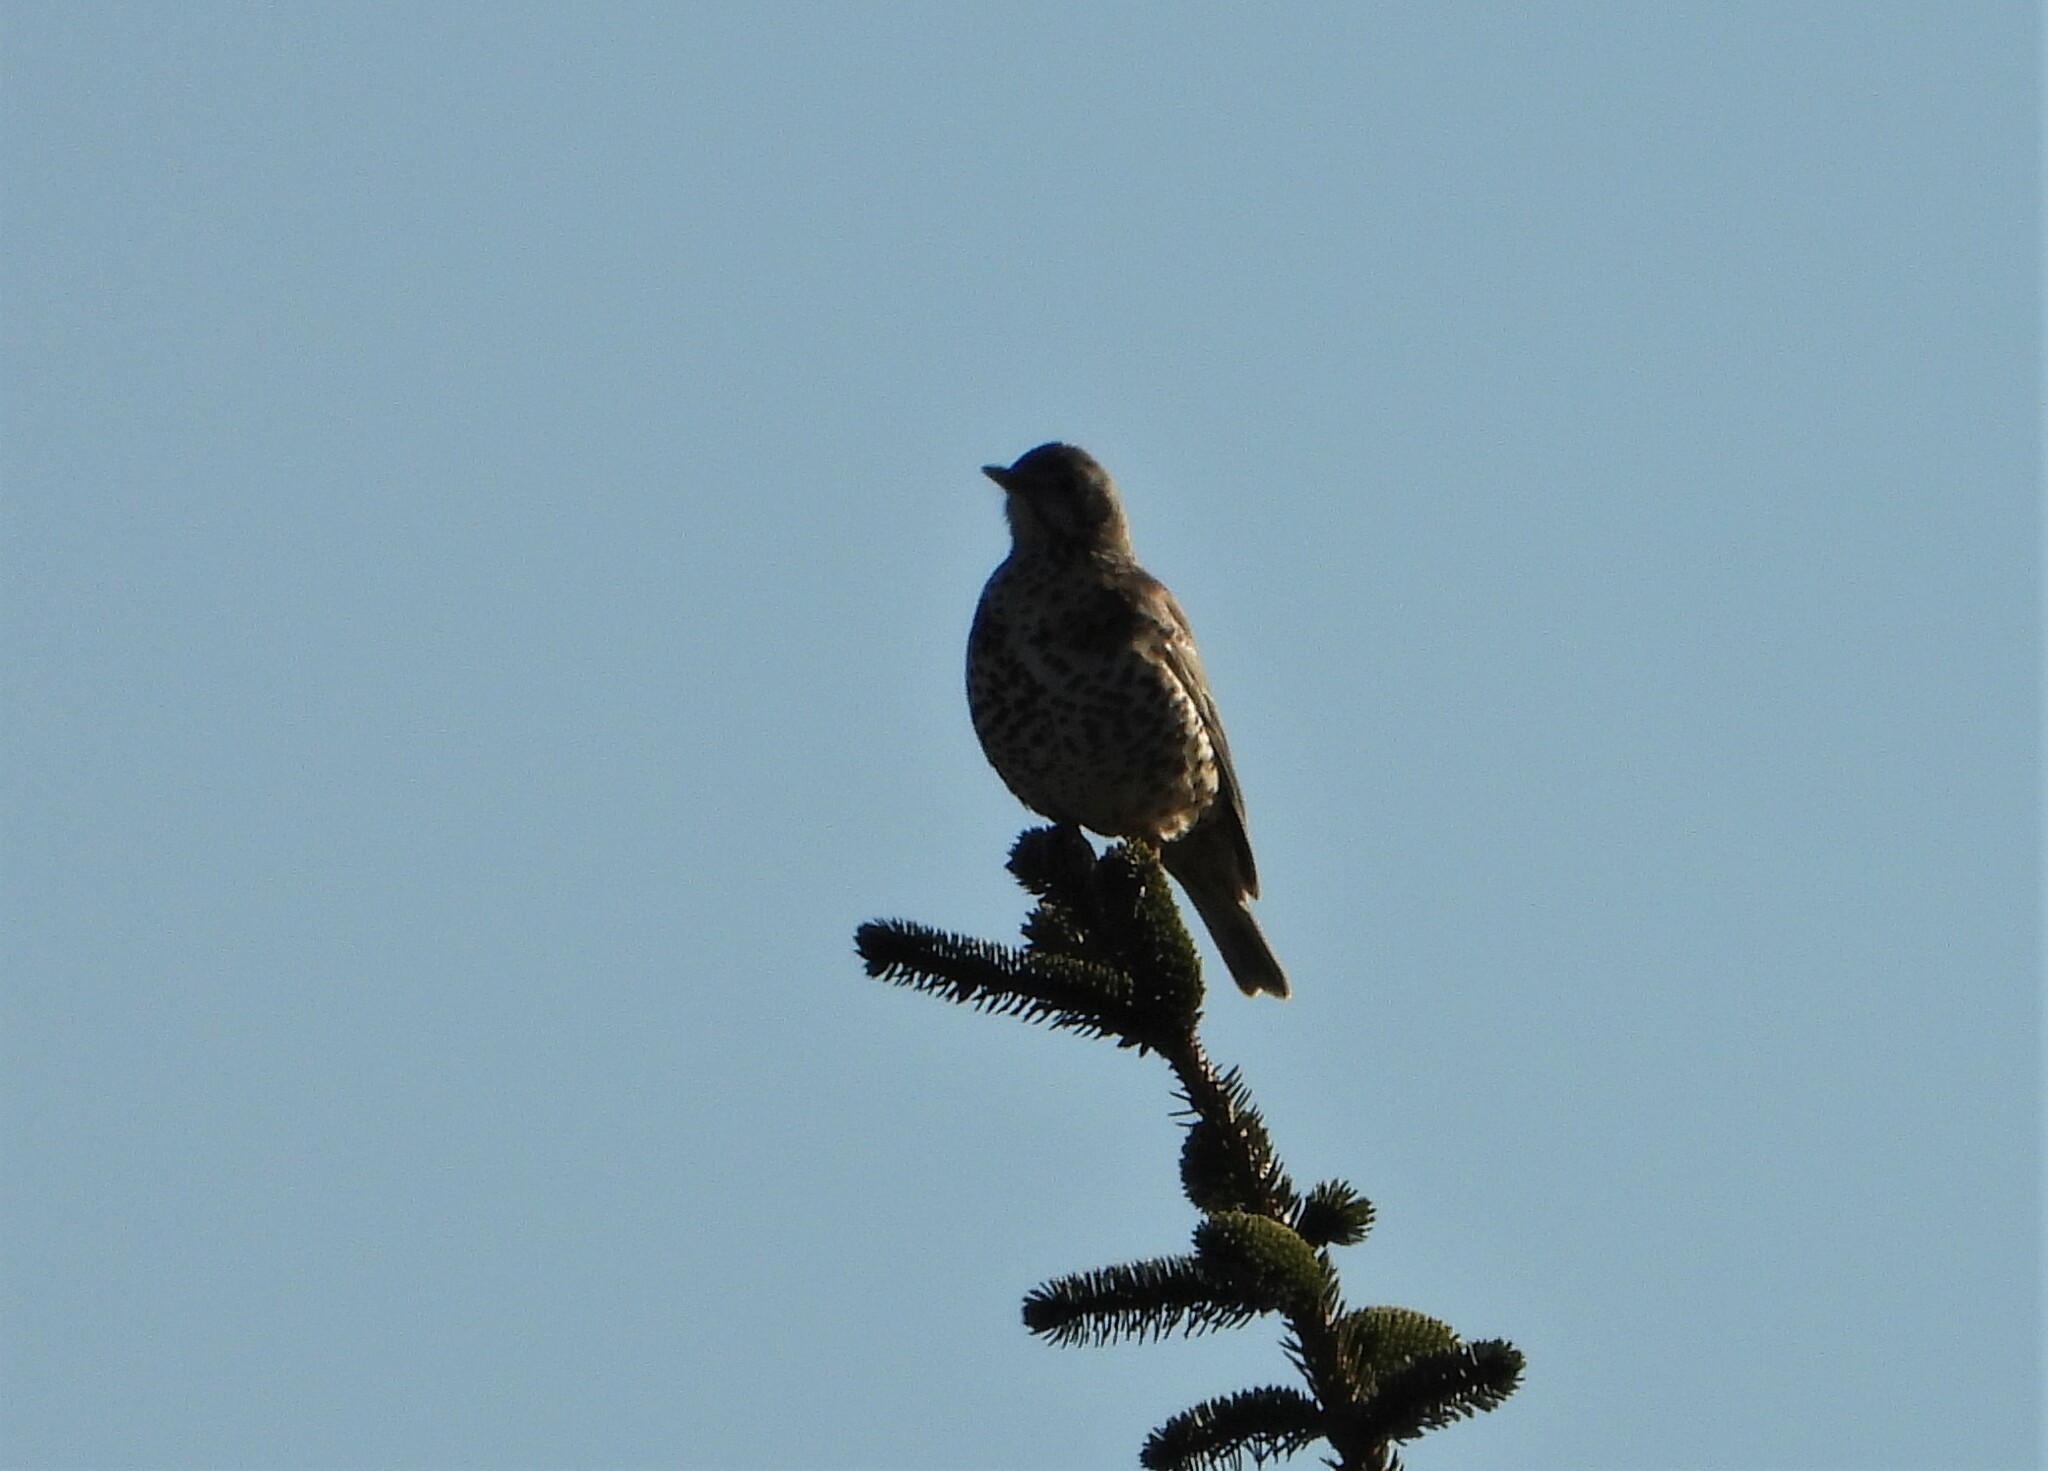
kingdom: Animalia
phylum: Chordata
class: Aves
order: Passeriformes
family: Turdidae
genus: Turdus
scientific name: Turdus viscivorus
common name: Mistle thrush
